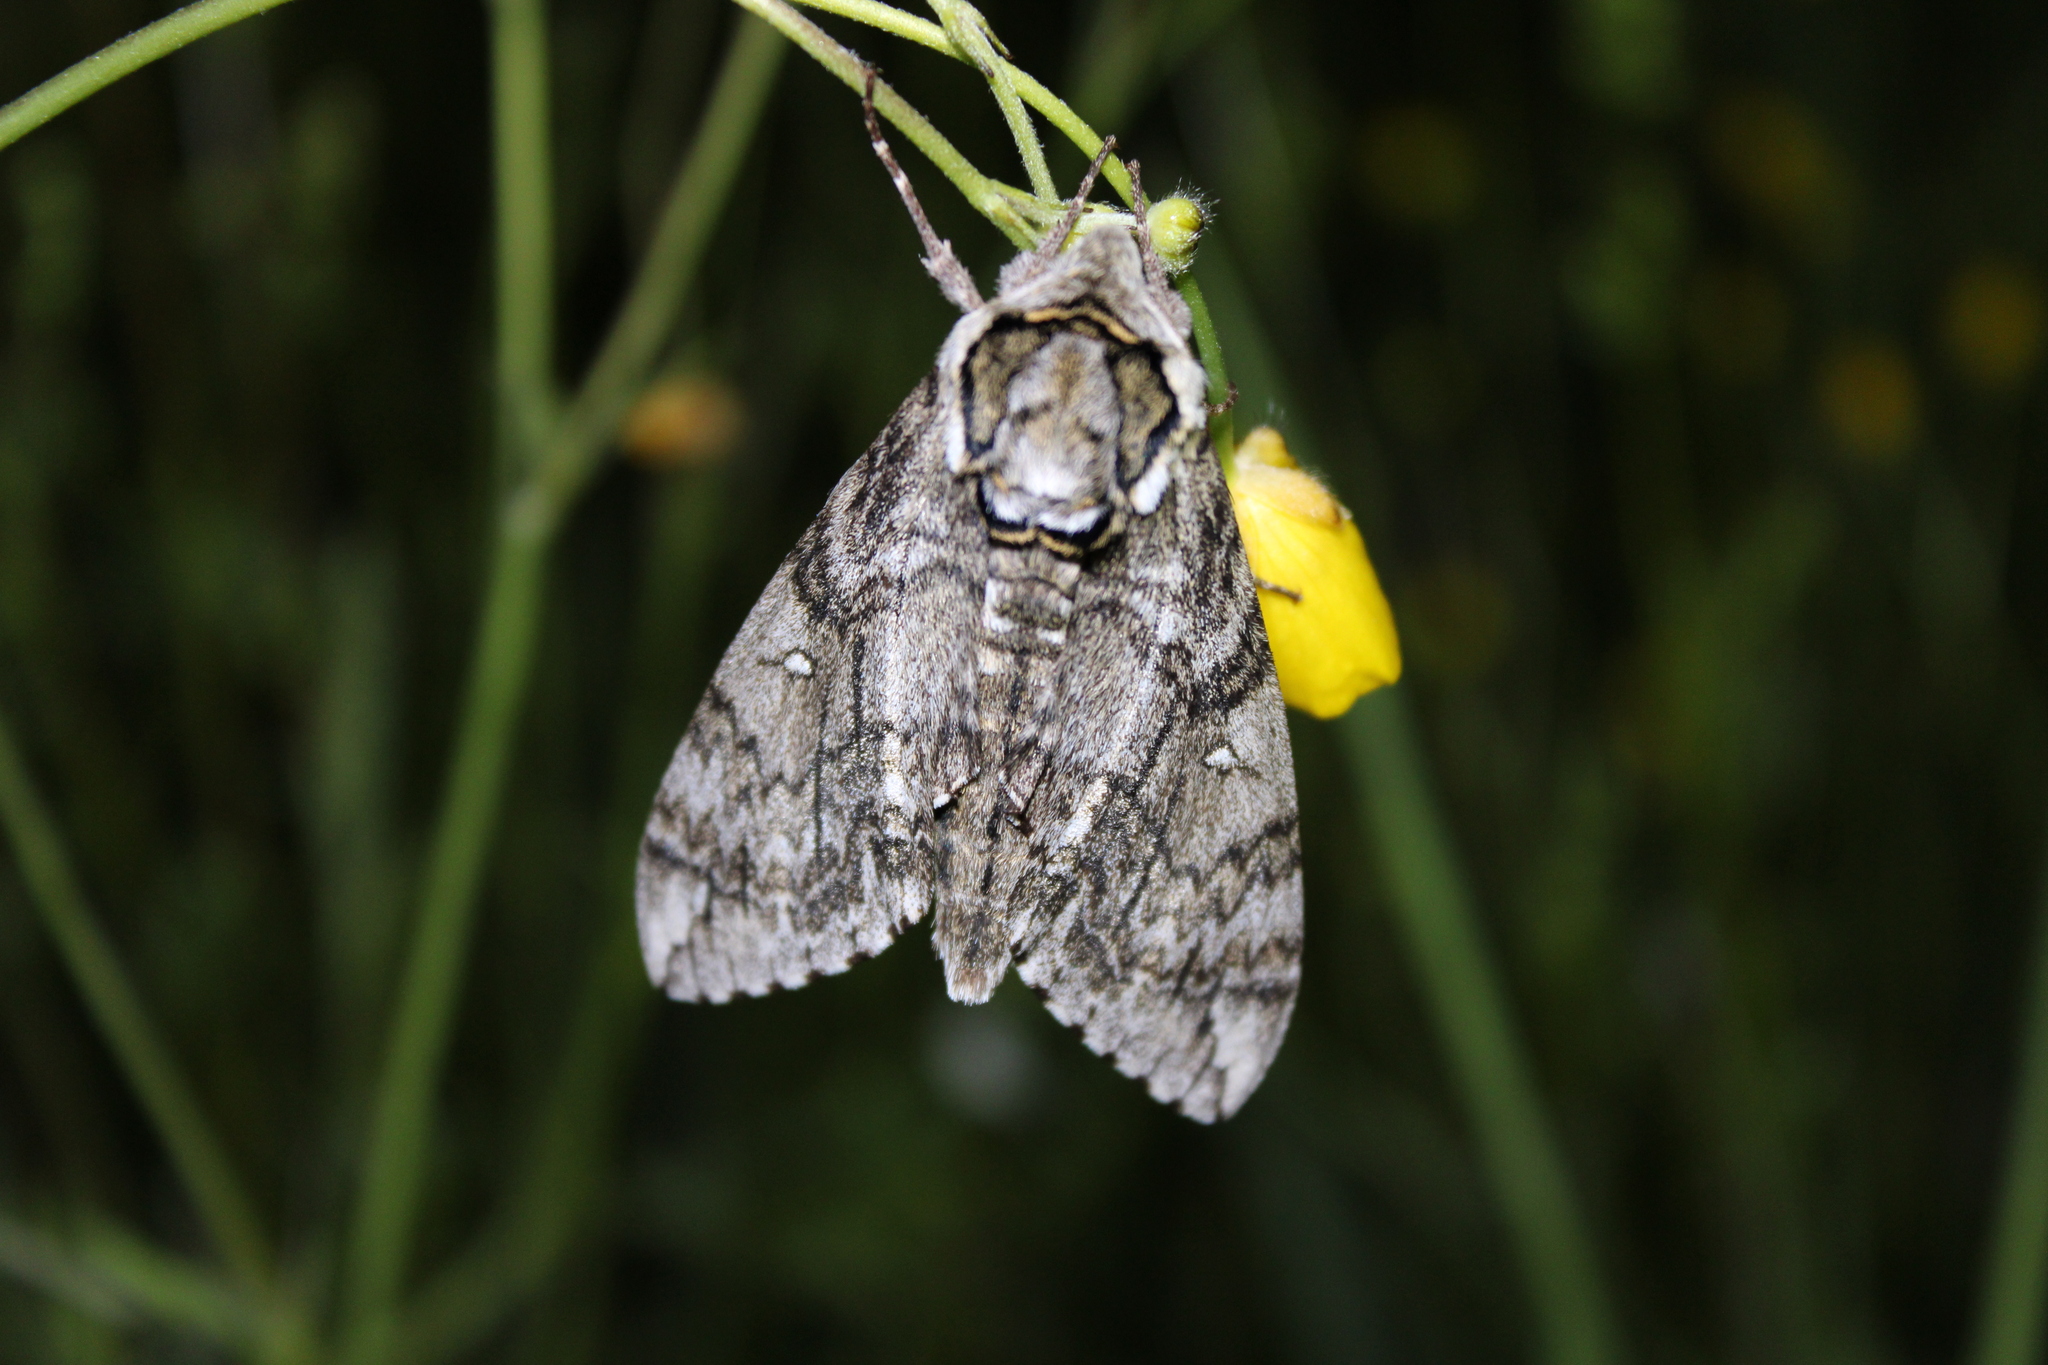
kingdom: Animalia
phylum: Arthropoda
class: Insecta
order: Lepidoptera
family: Sphingidae
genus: Ceratomia
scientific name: Ceratomia undulosa
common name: Waved sphinx
